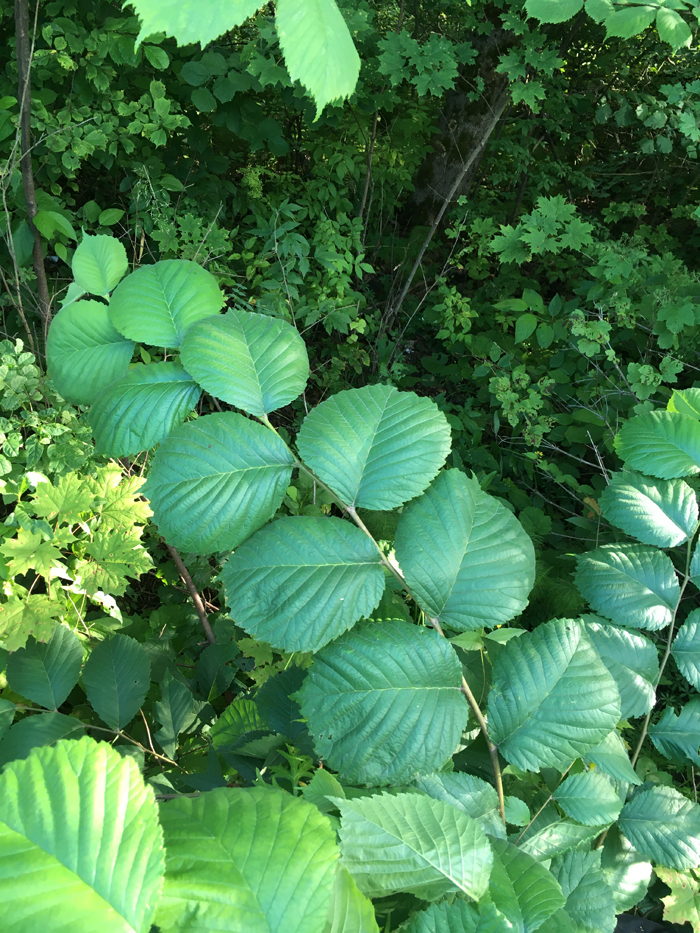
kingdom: Plantae
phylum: Tracheophyta
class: Magnoliopsida
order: Rosales
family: Ulmaceae
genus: Ulmus
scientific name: Ulmus glabra
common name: Wych elm
